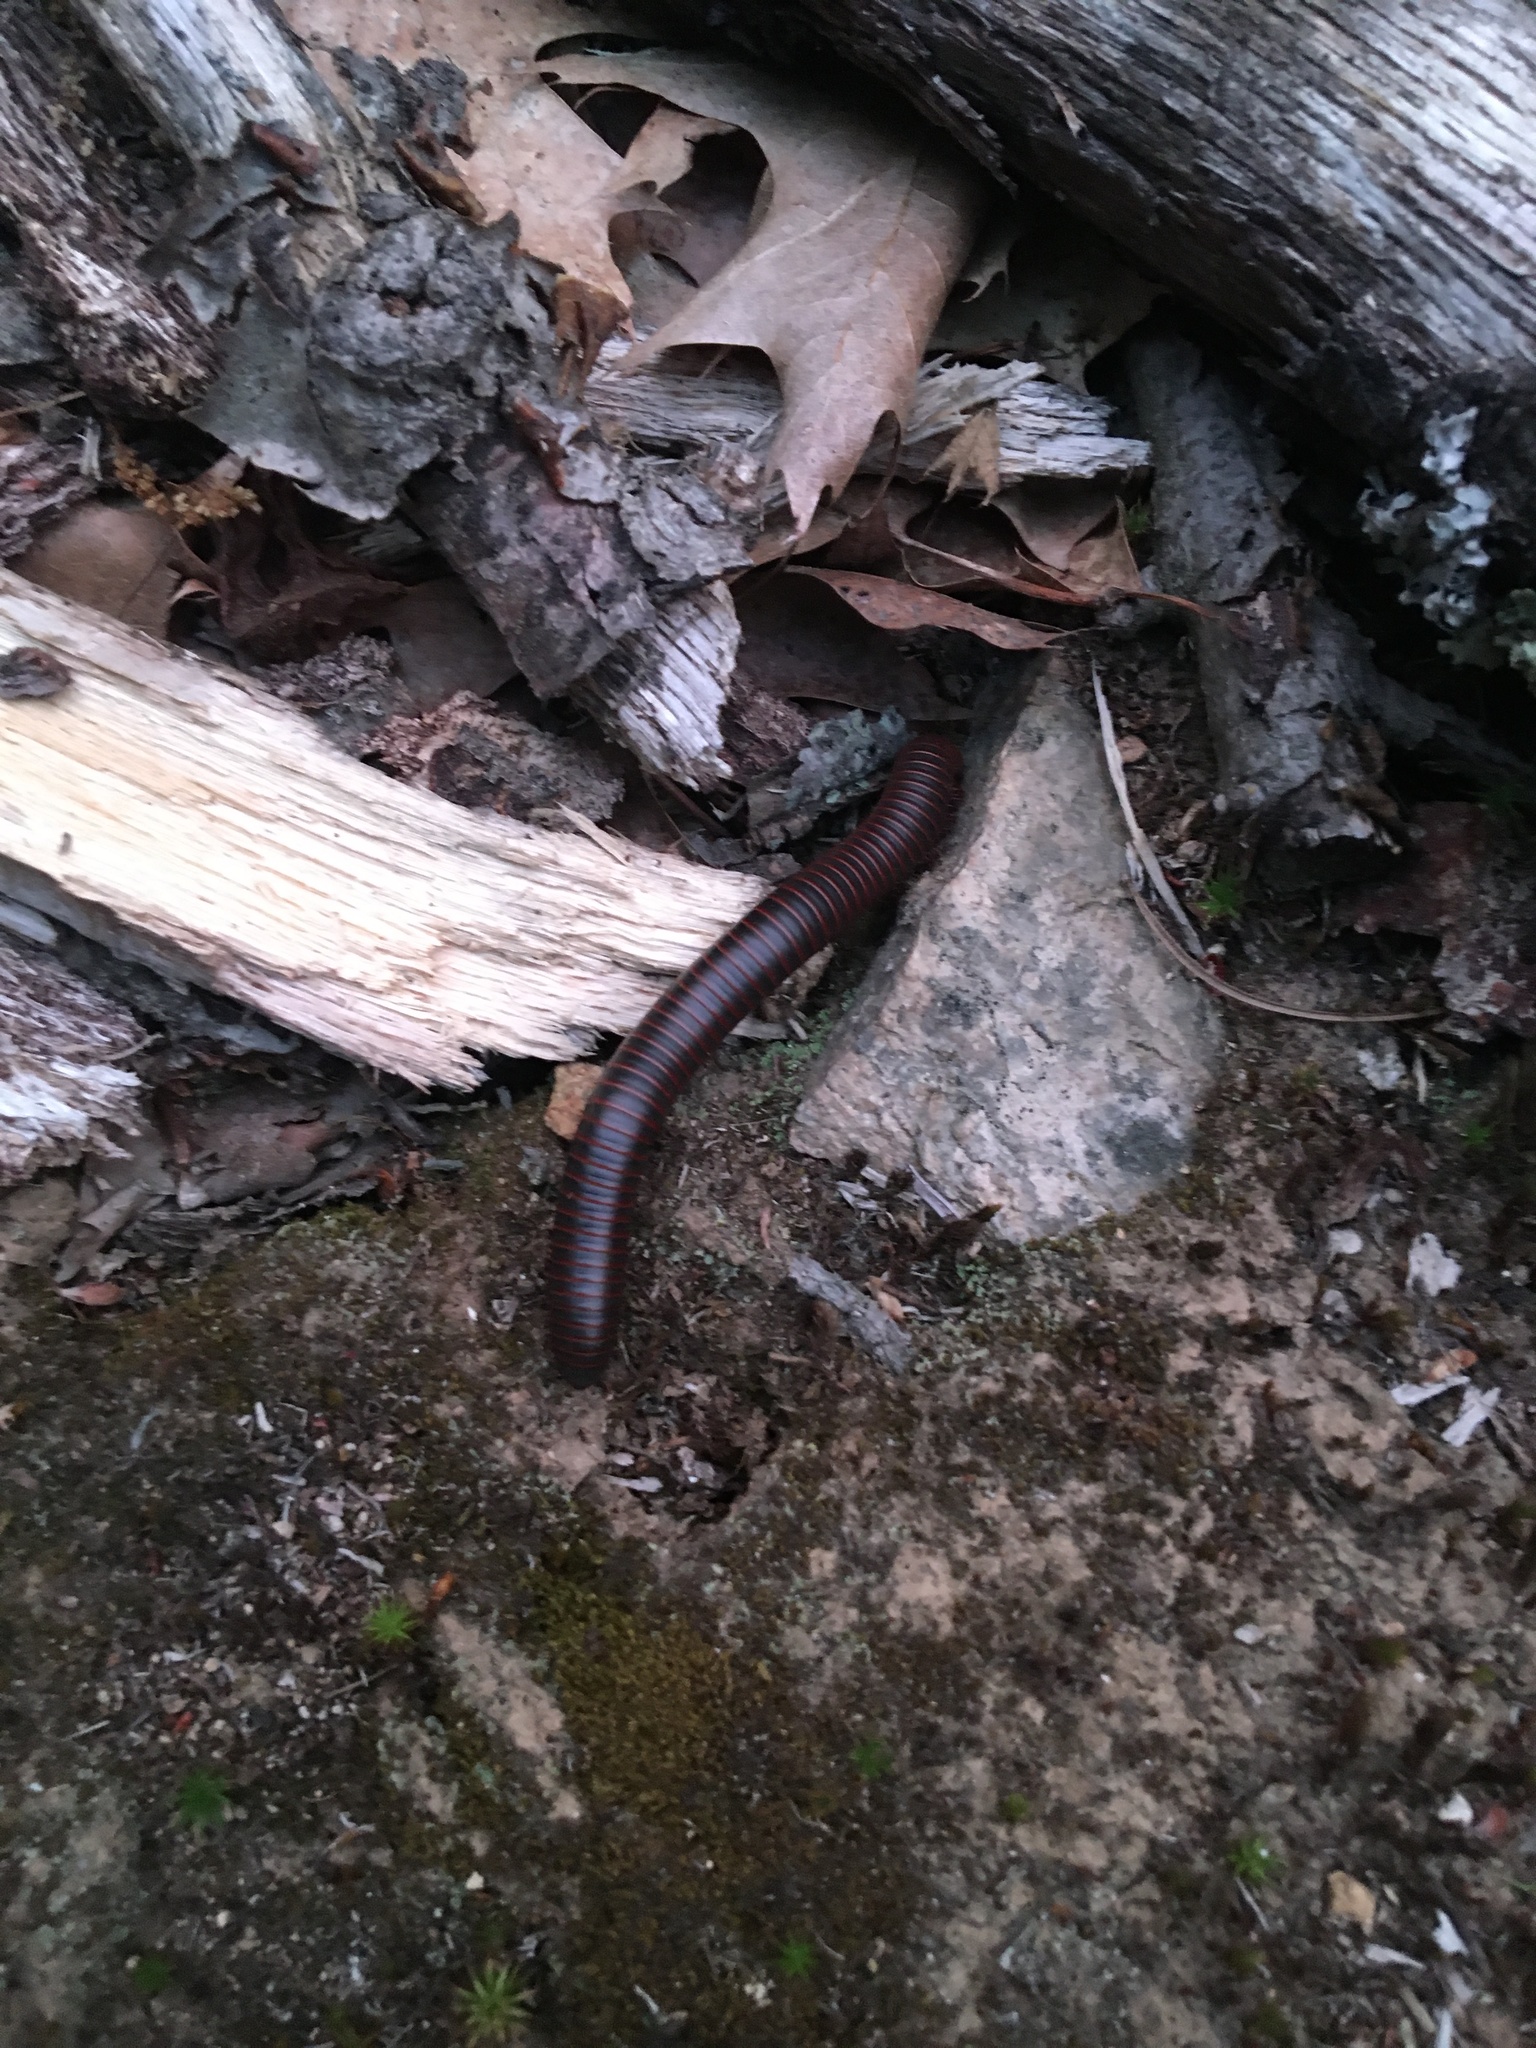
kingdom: Animalia
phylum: Arthropoda
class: Diplopoda
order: Spirobolida
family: Spirobolidae
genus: Narceus
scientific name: Narceus
